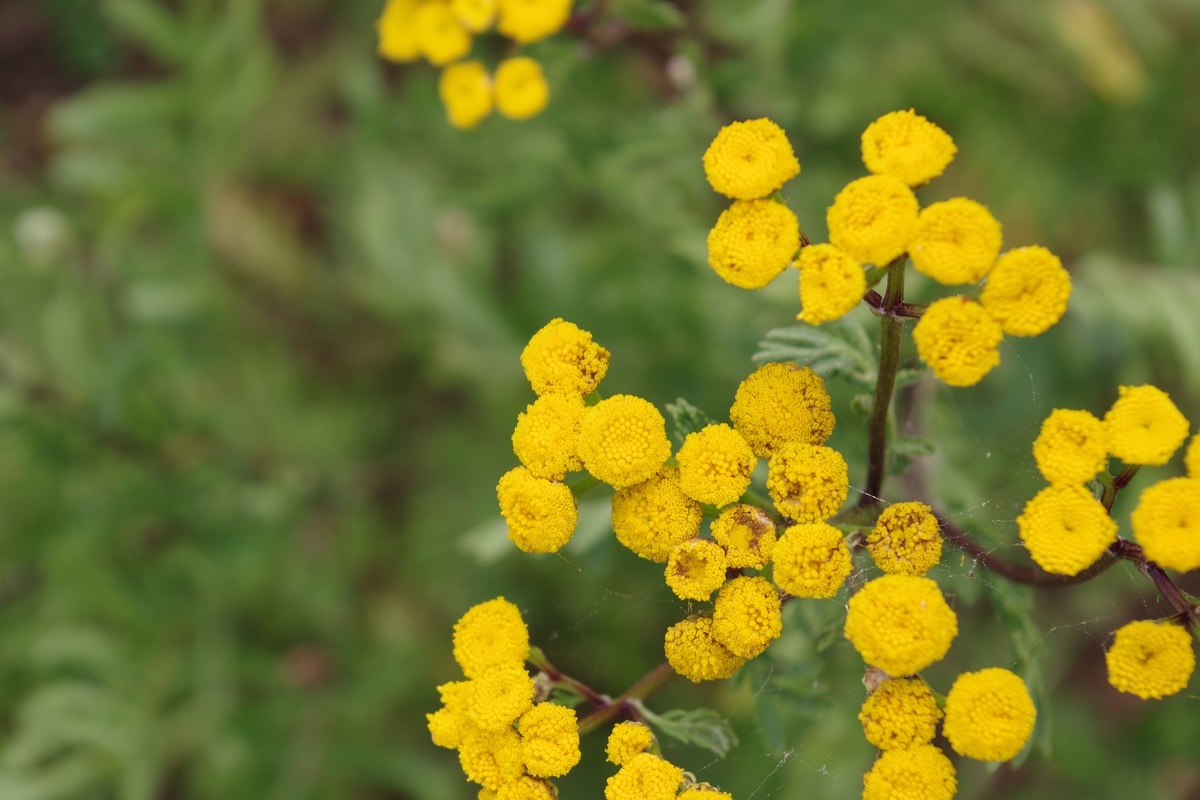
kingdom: Plantae
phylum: Tracheophyta
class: Magnoliopsida
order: Asterales
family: Asteraceae
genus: Tanacetum
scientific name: Tanacetum vulgare
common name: Common tansy
